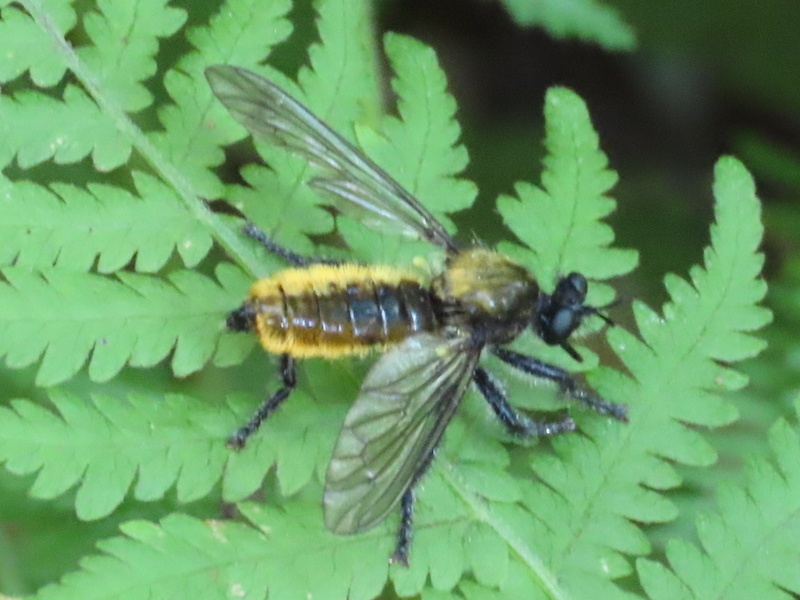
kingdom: Animalia
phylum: Arthropoda
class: Insecta
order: Diptera
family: Asilidae
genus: Laphria
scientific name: Laphria
